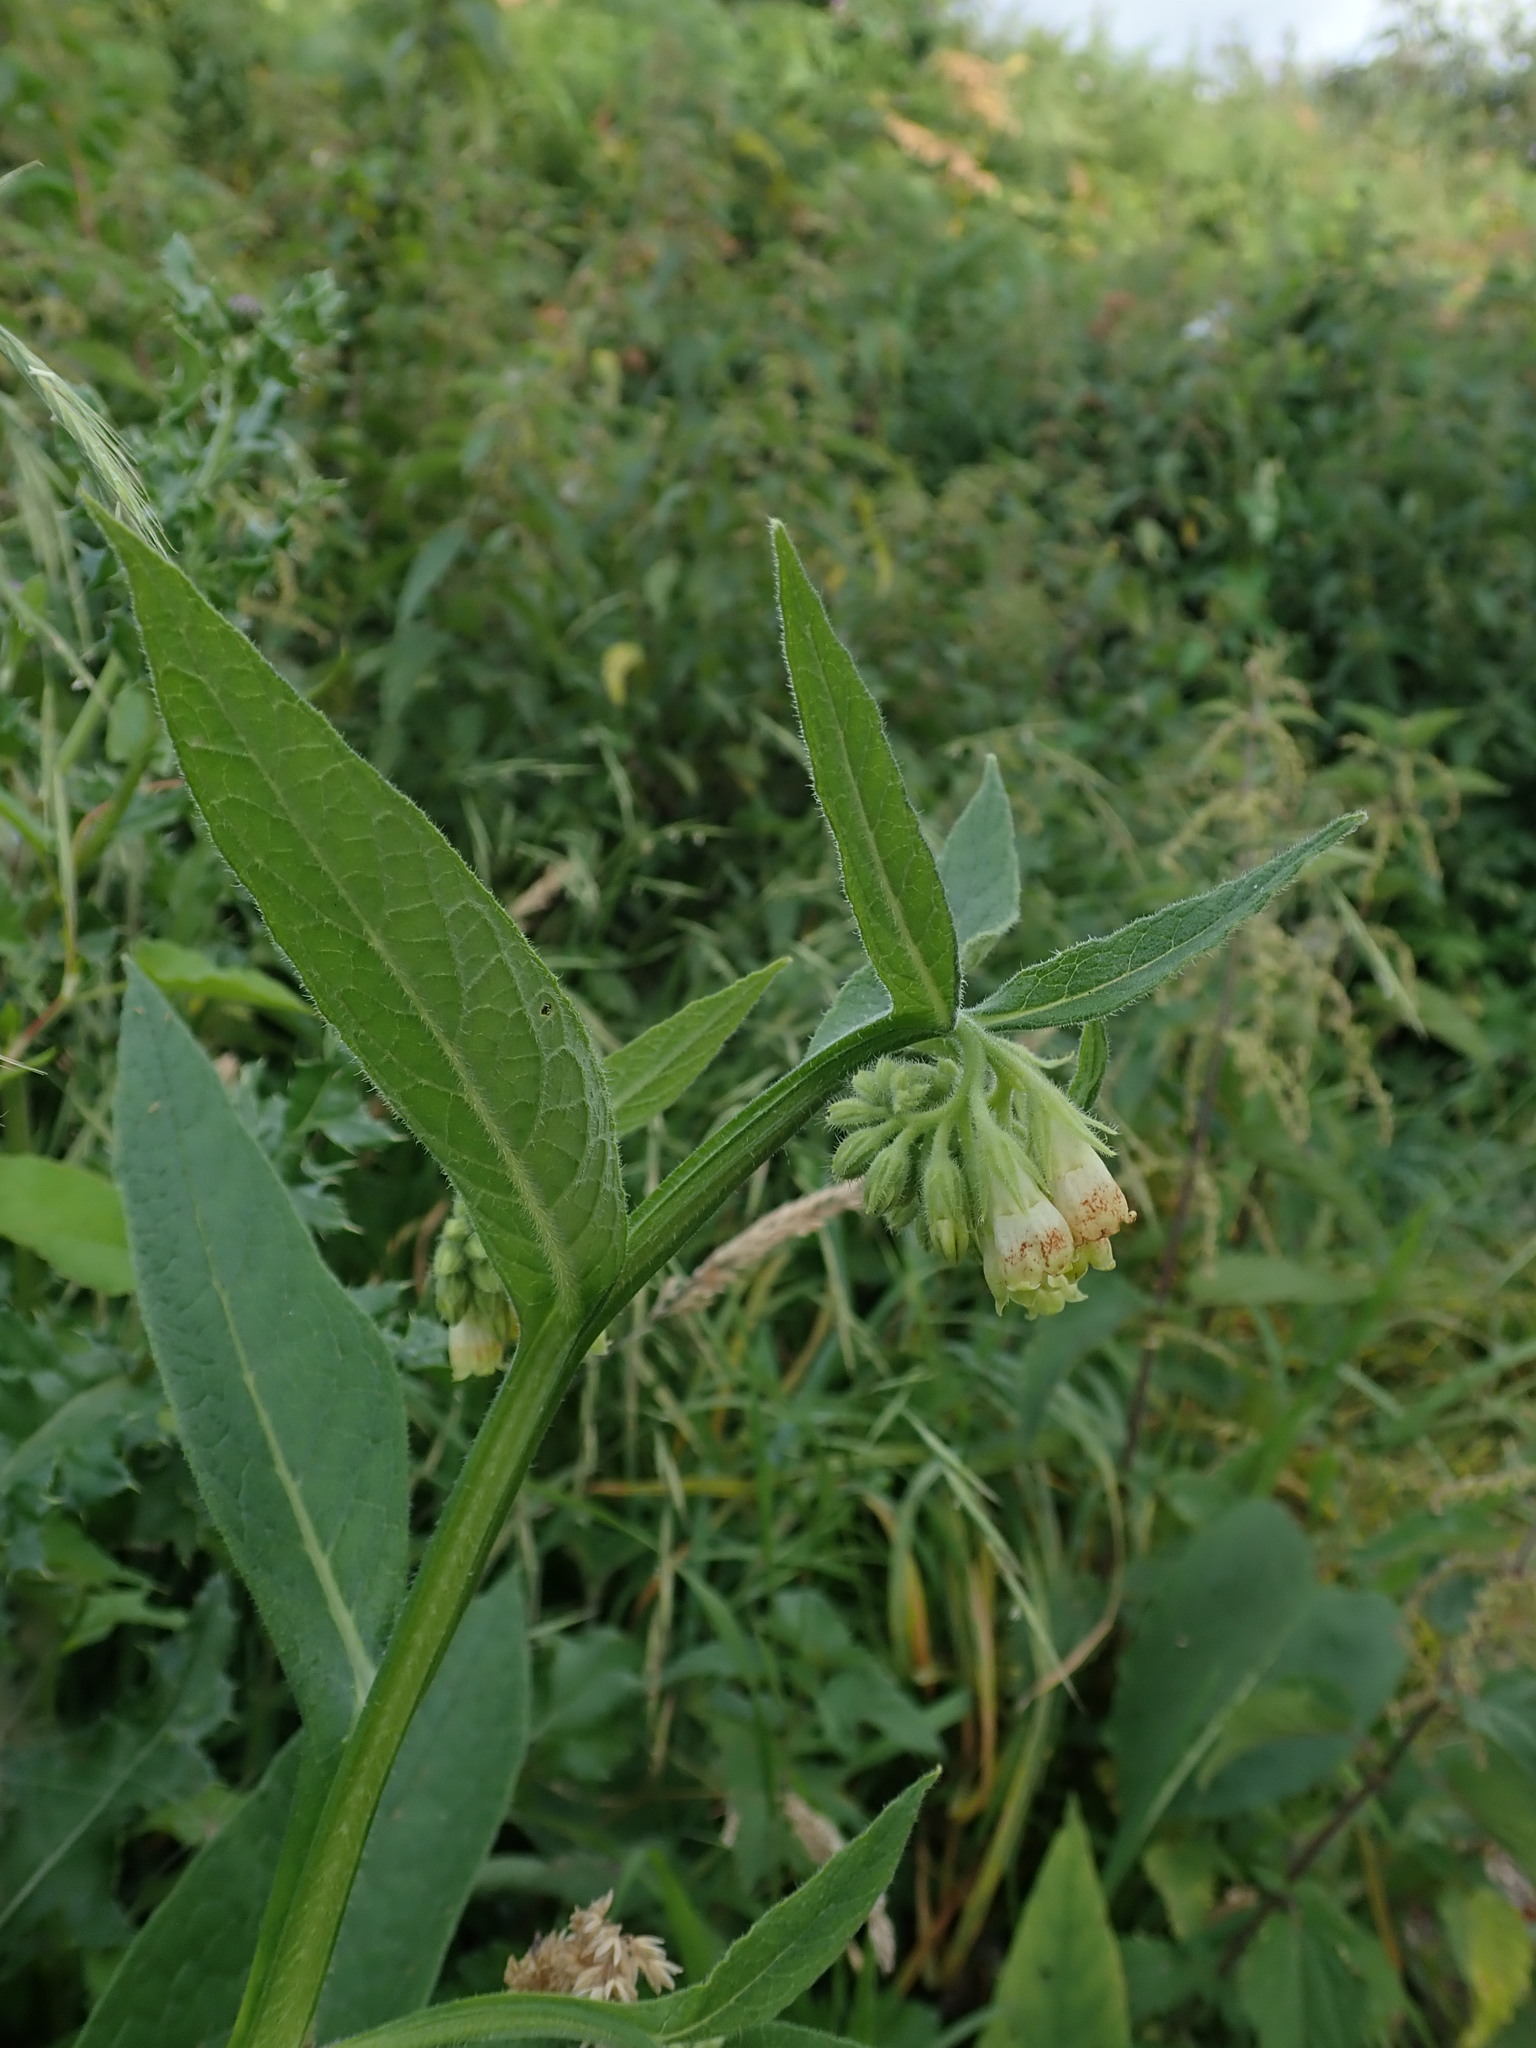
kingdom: Plantae
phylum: Tracheophyta
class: Magnoliopsida
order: Boraginales
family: Boraginaceae
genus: Symphytum
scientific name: Symphytum officinale
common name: Common comfrey
